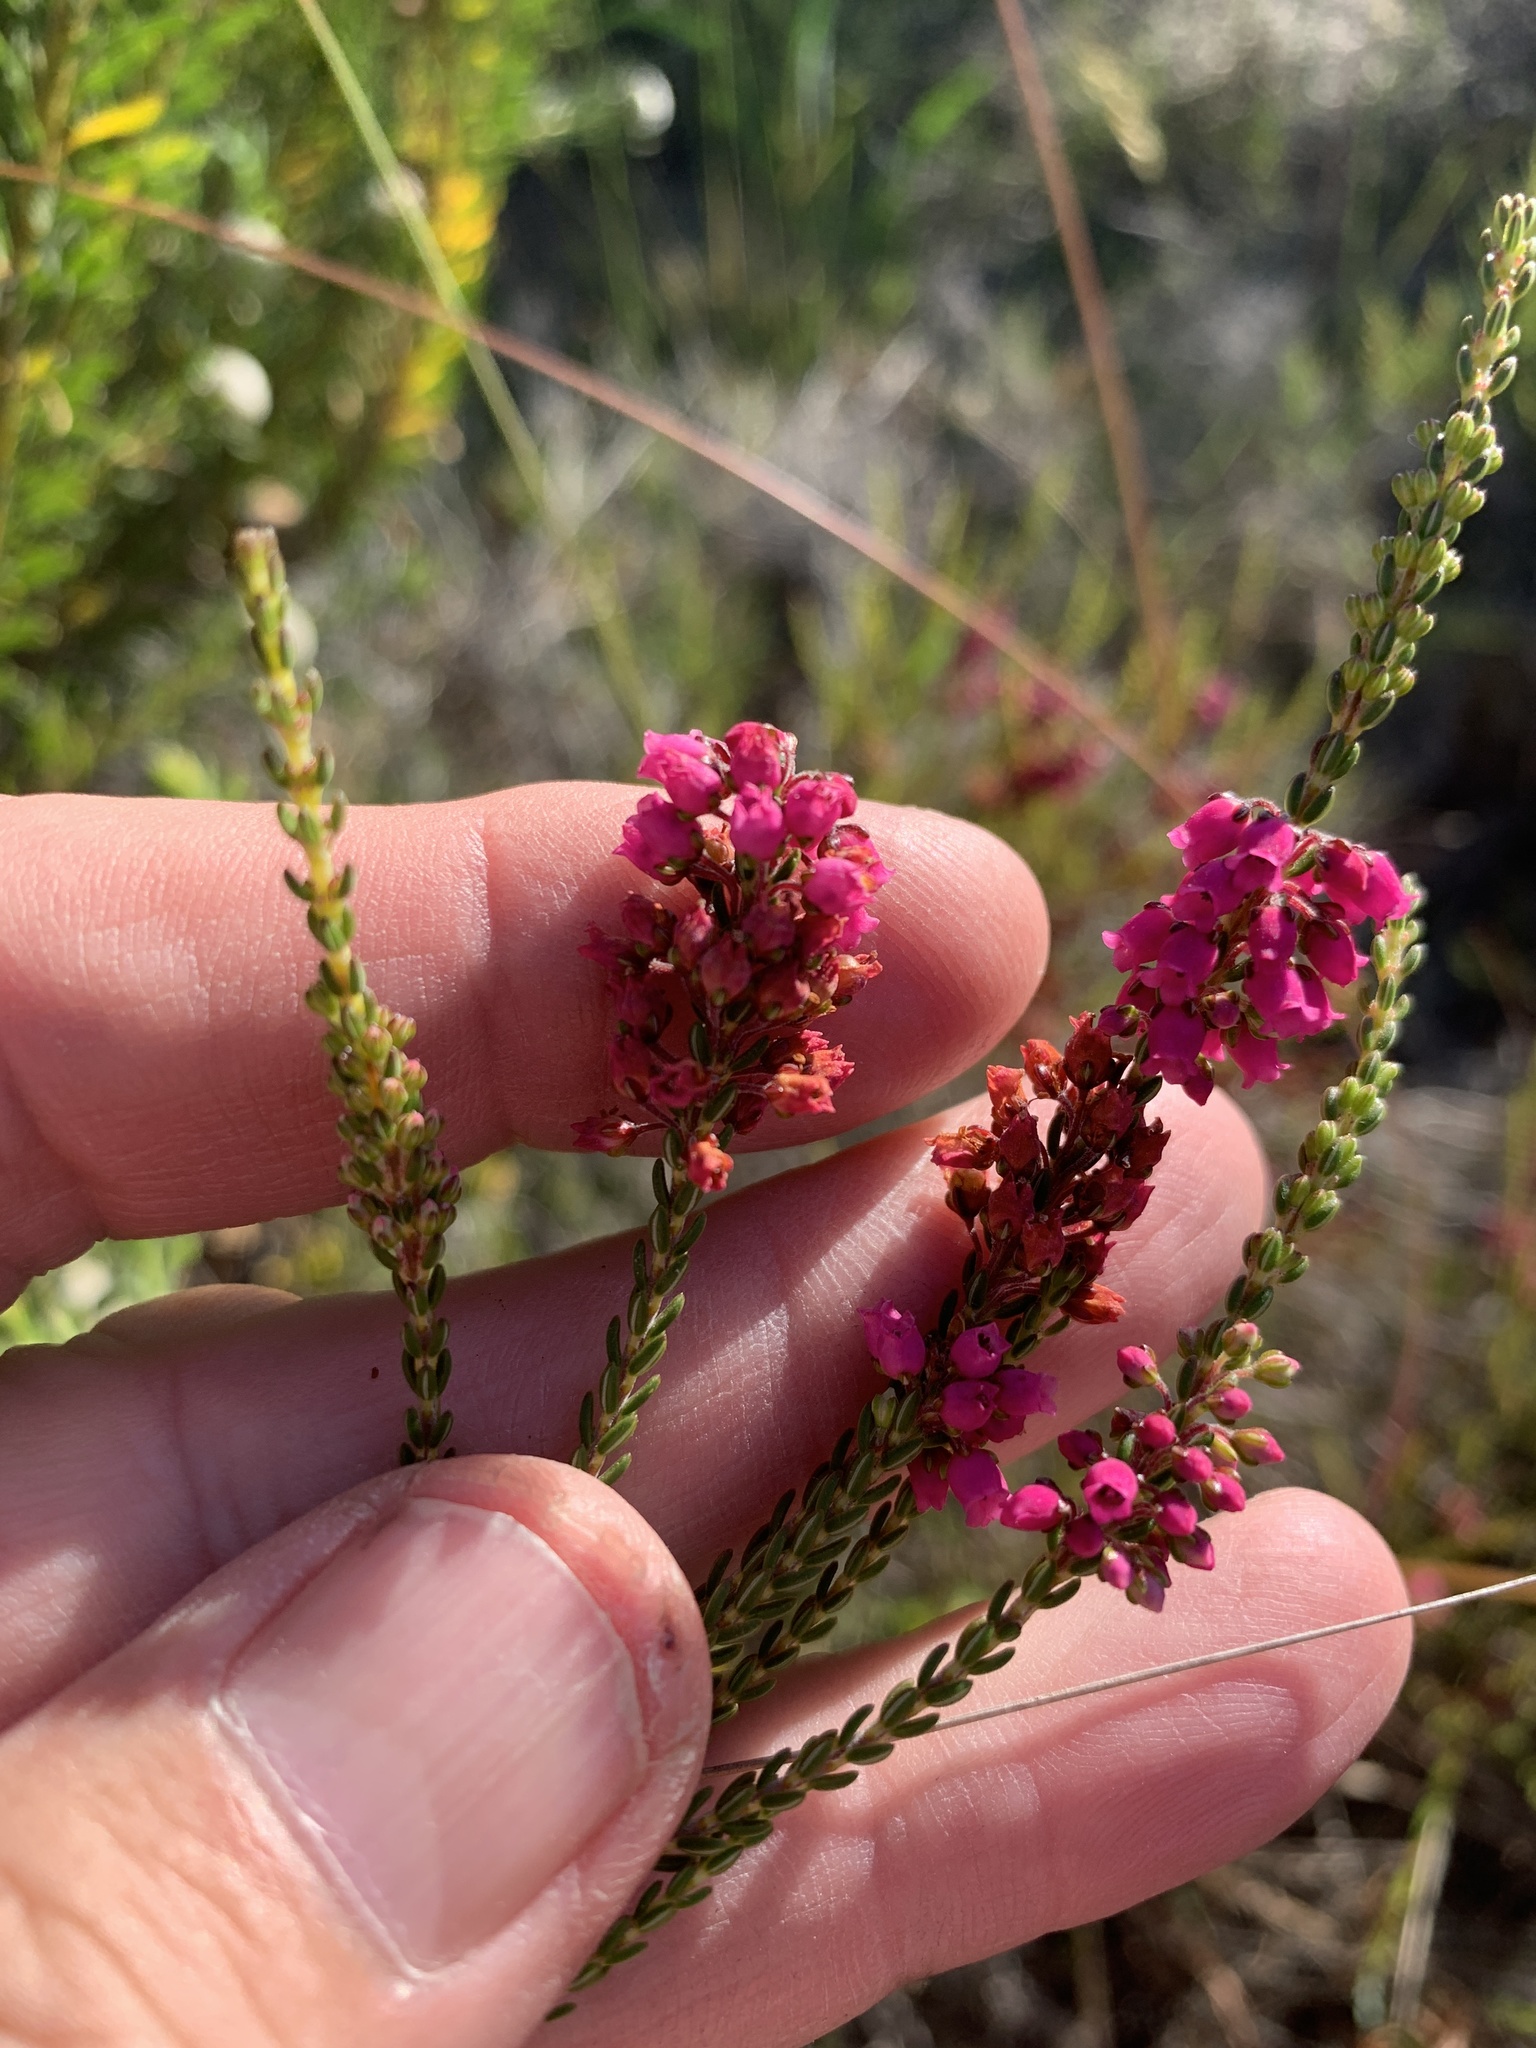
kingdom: Plantae
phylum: Tracheophyta
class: Magnoliopsida
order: Ericales
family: Ericaceae
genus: Erica
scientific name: Erica pulchella
